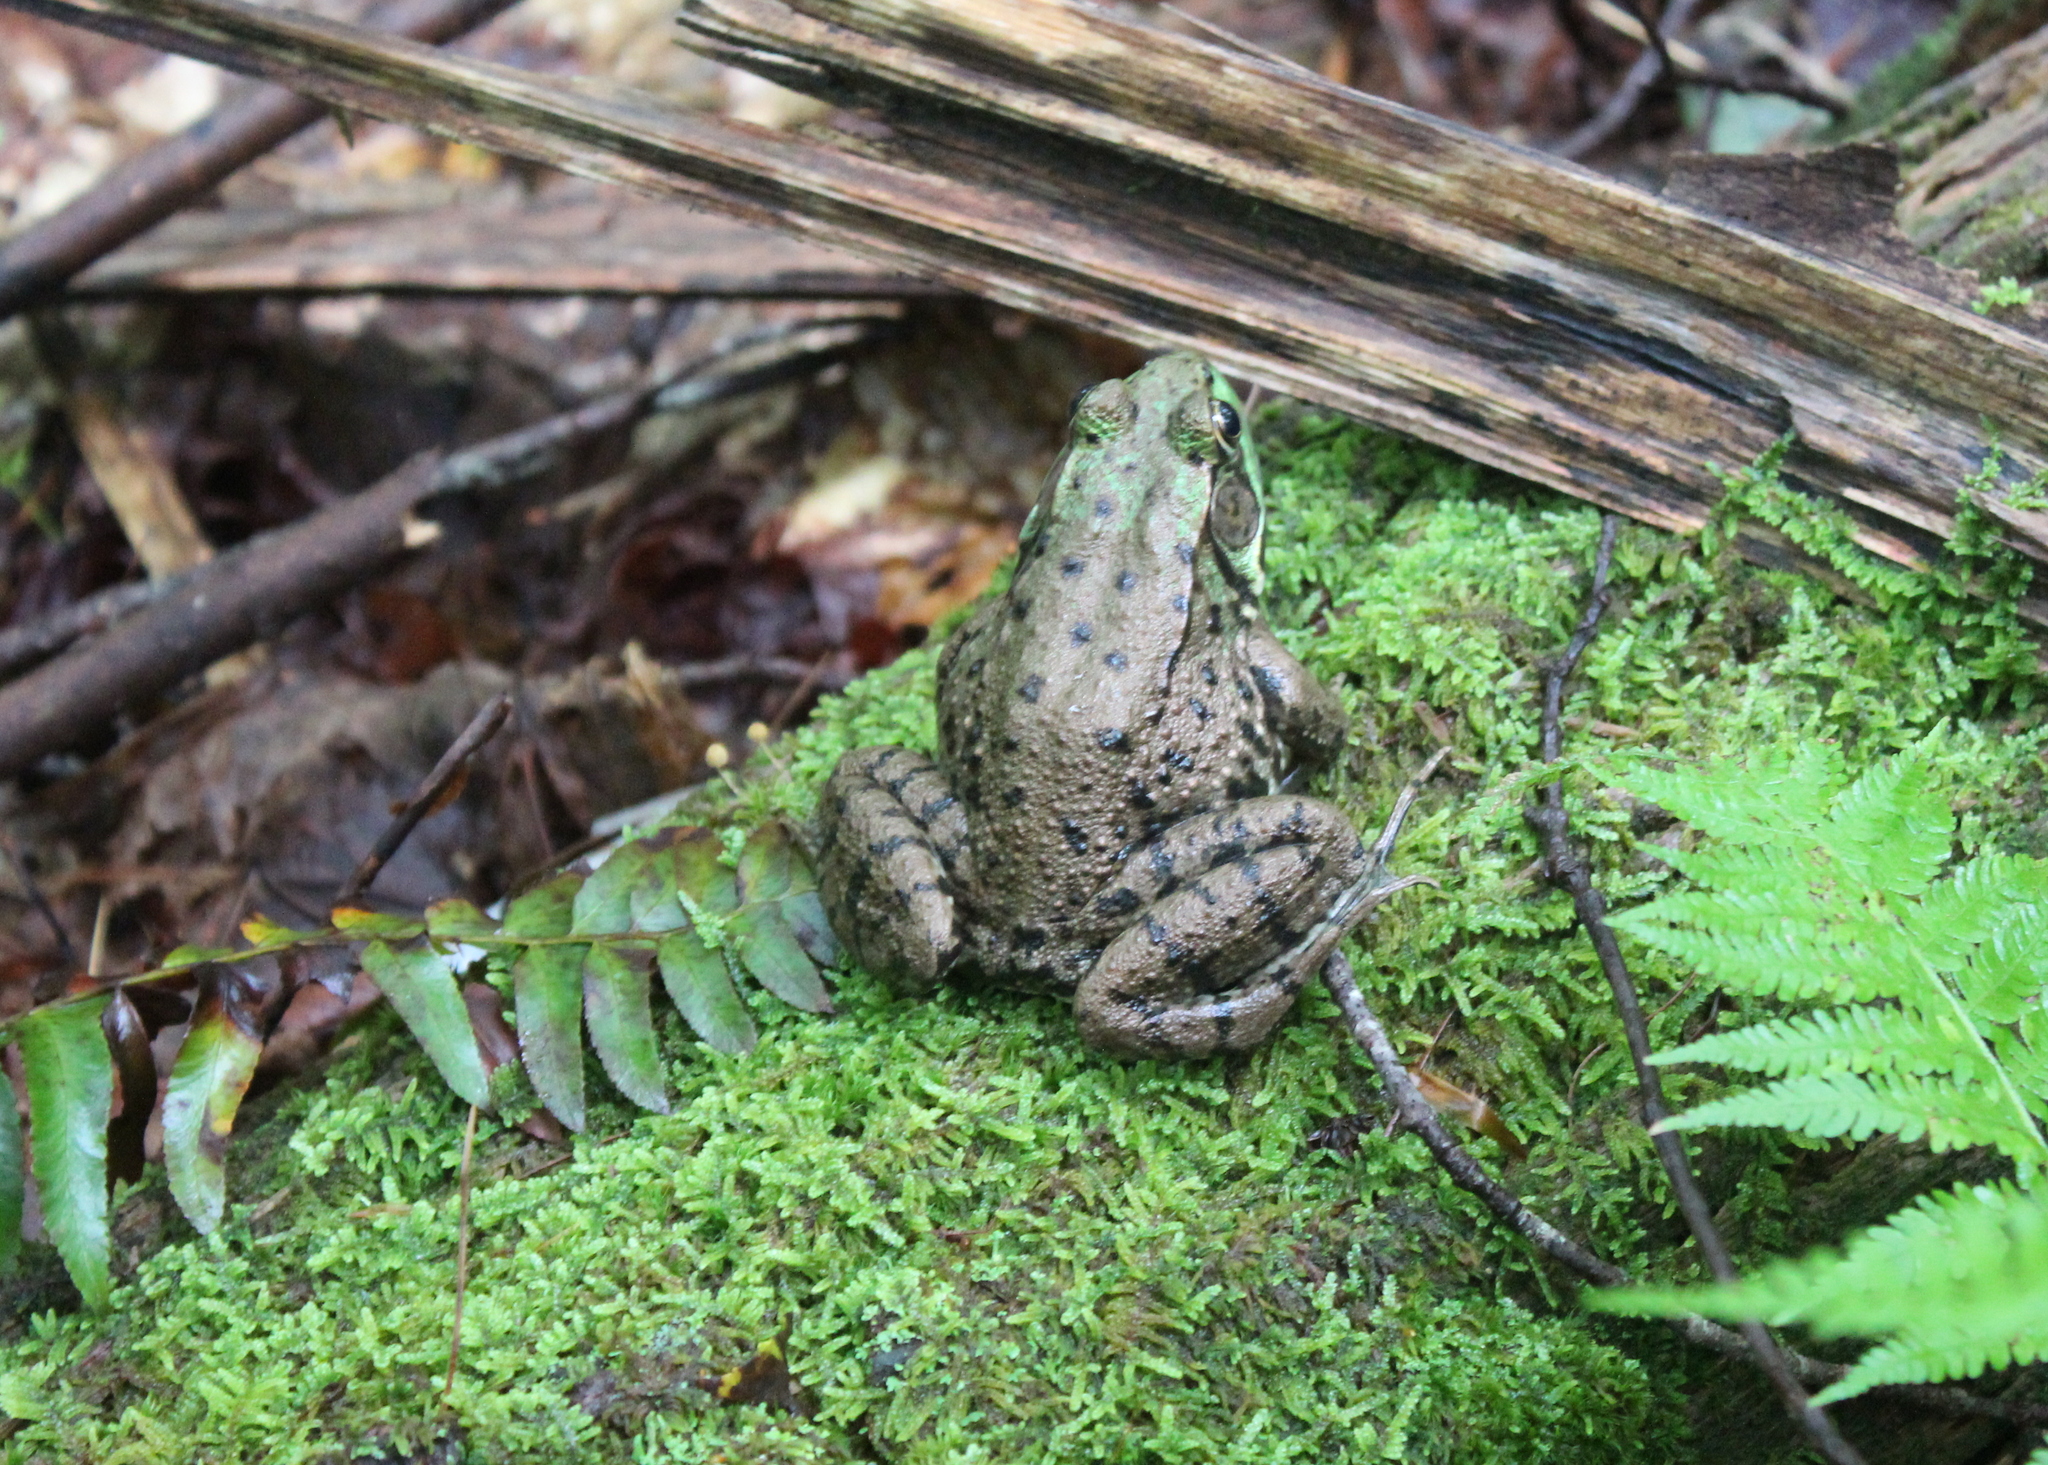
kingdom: Animalia
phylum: Chordata
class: Amphibia
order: Anura
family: Ranidae
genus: Lithobates
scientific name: Lithobates clamitans
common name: Green frog
